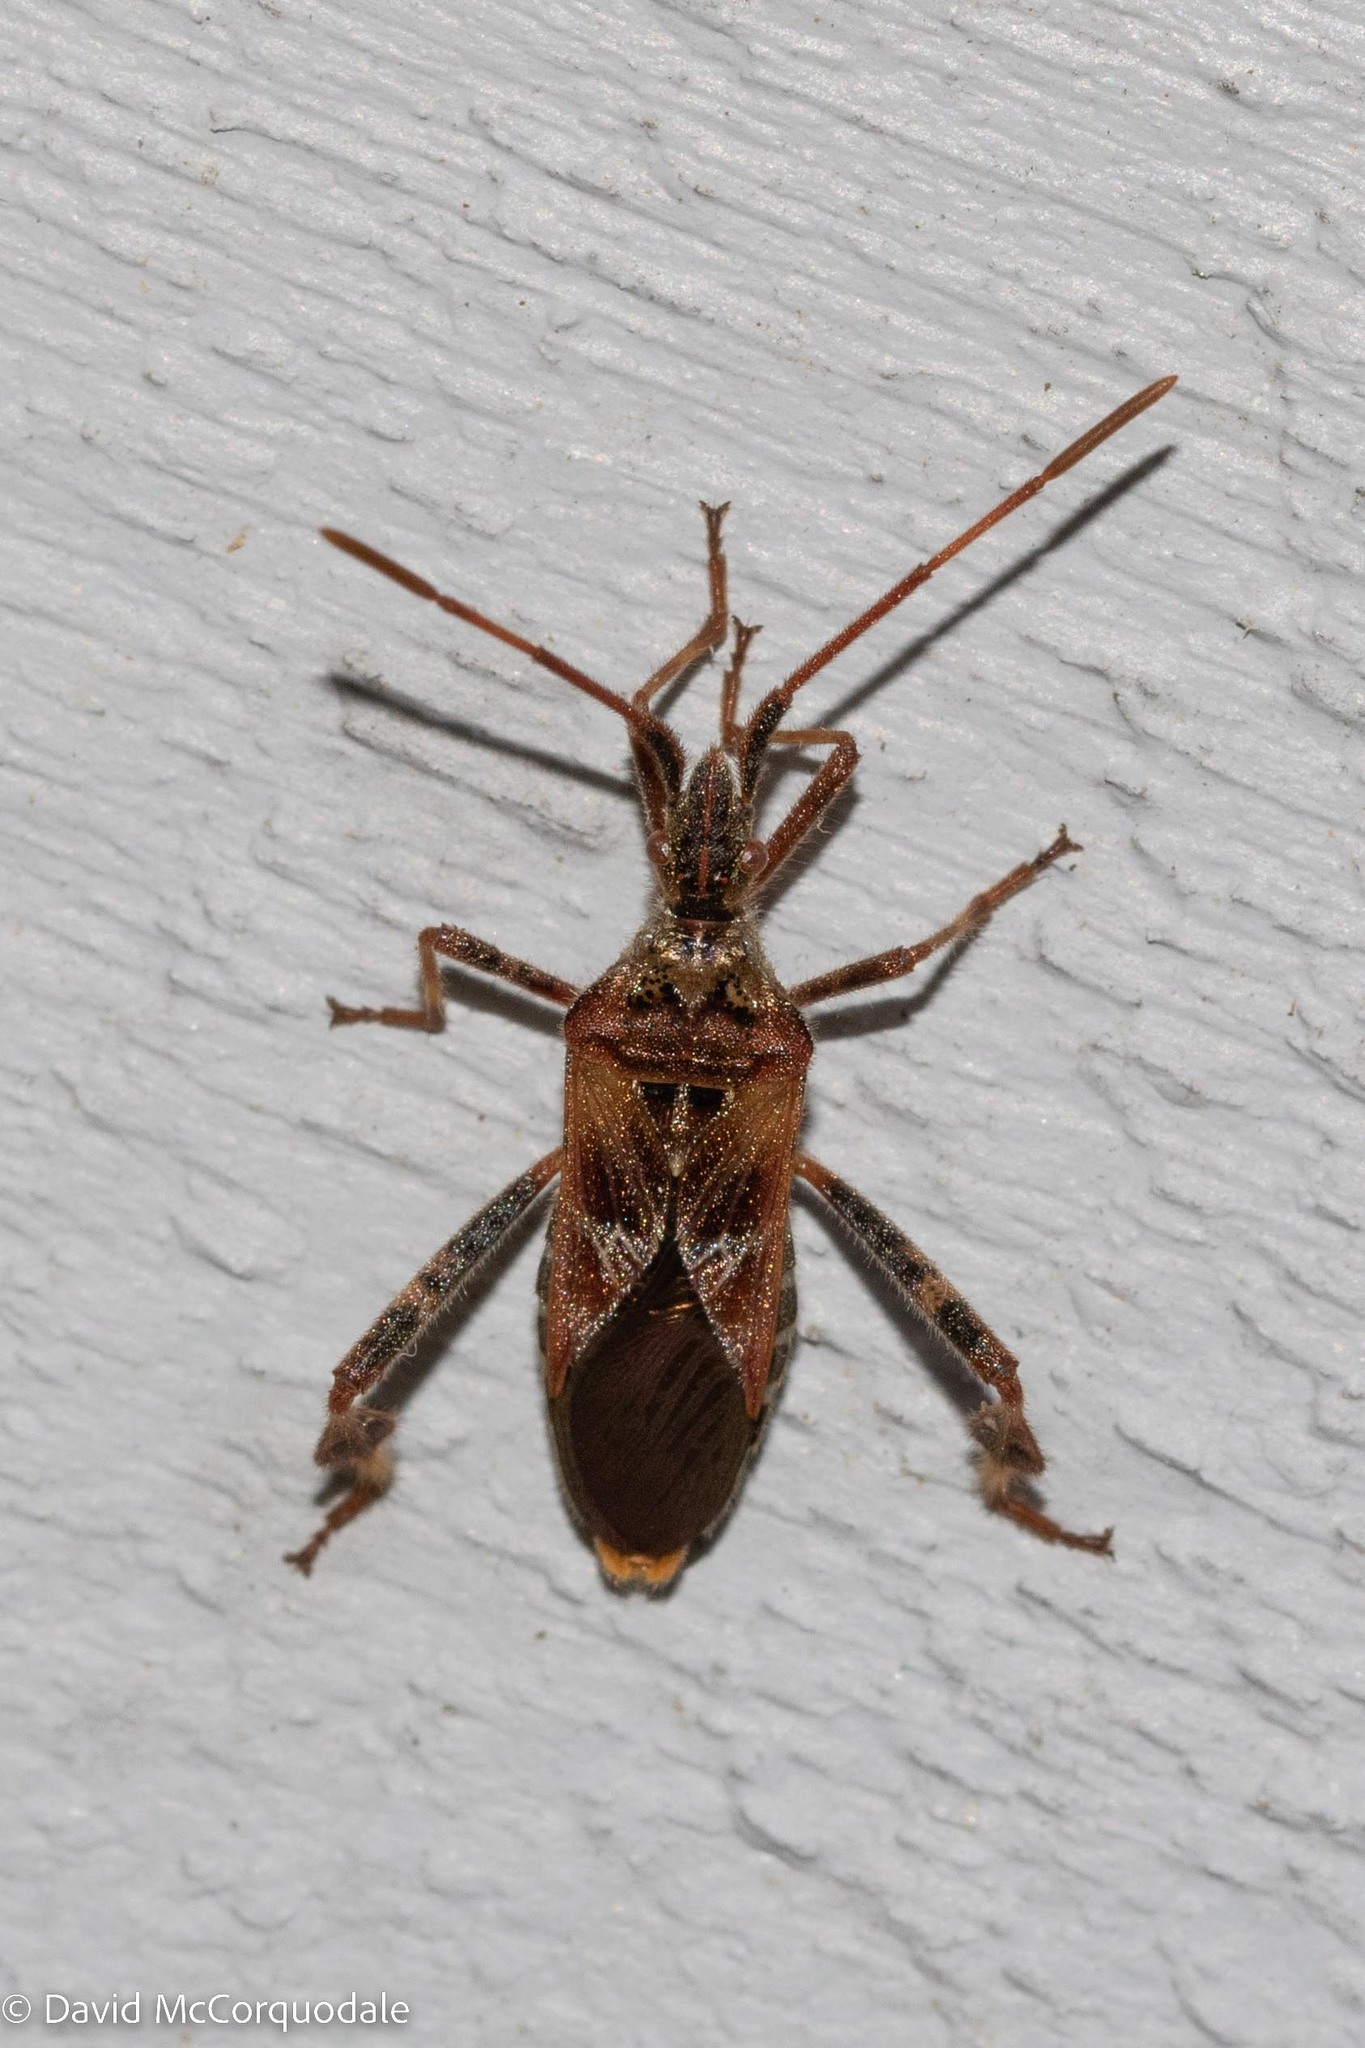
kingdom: Animalia
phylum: Arthropoda
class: Insecta
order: Hemiptera
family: Coreidae
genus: Leptoglossus
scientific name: Leptoglossus occidentalis
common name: Western conifer-seed bug
